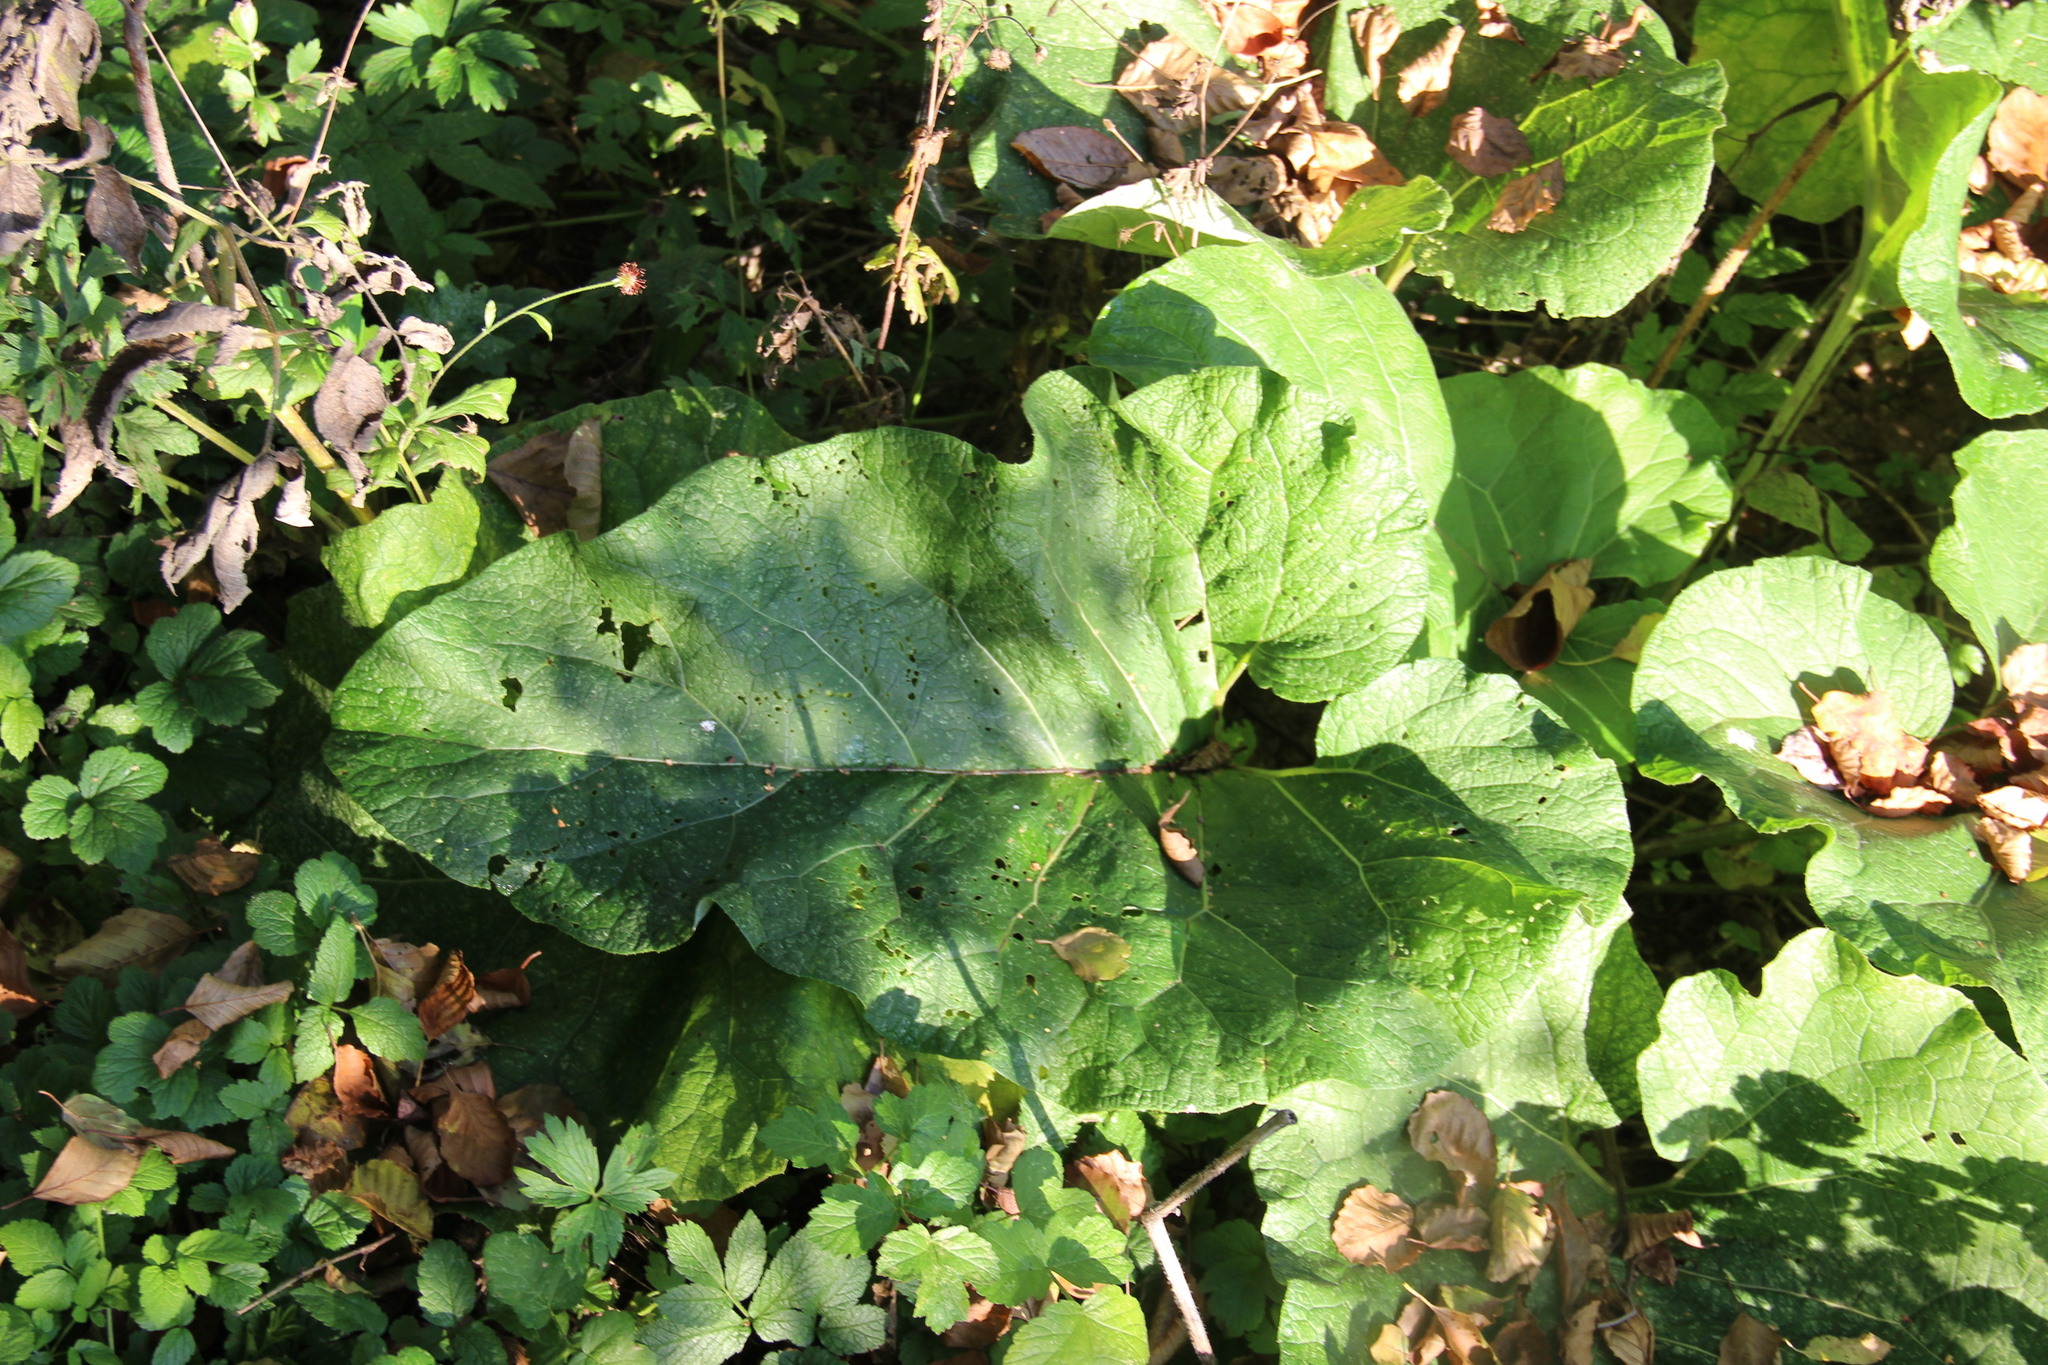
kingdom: Plantae
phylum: Tracheophyta
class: Magnoliopsida
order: Asterales
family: Asteraceae
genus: Arctium
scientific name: Arctium
